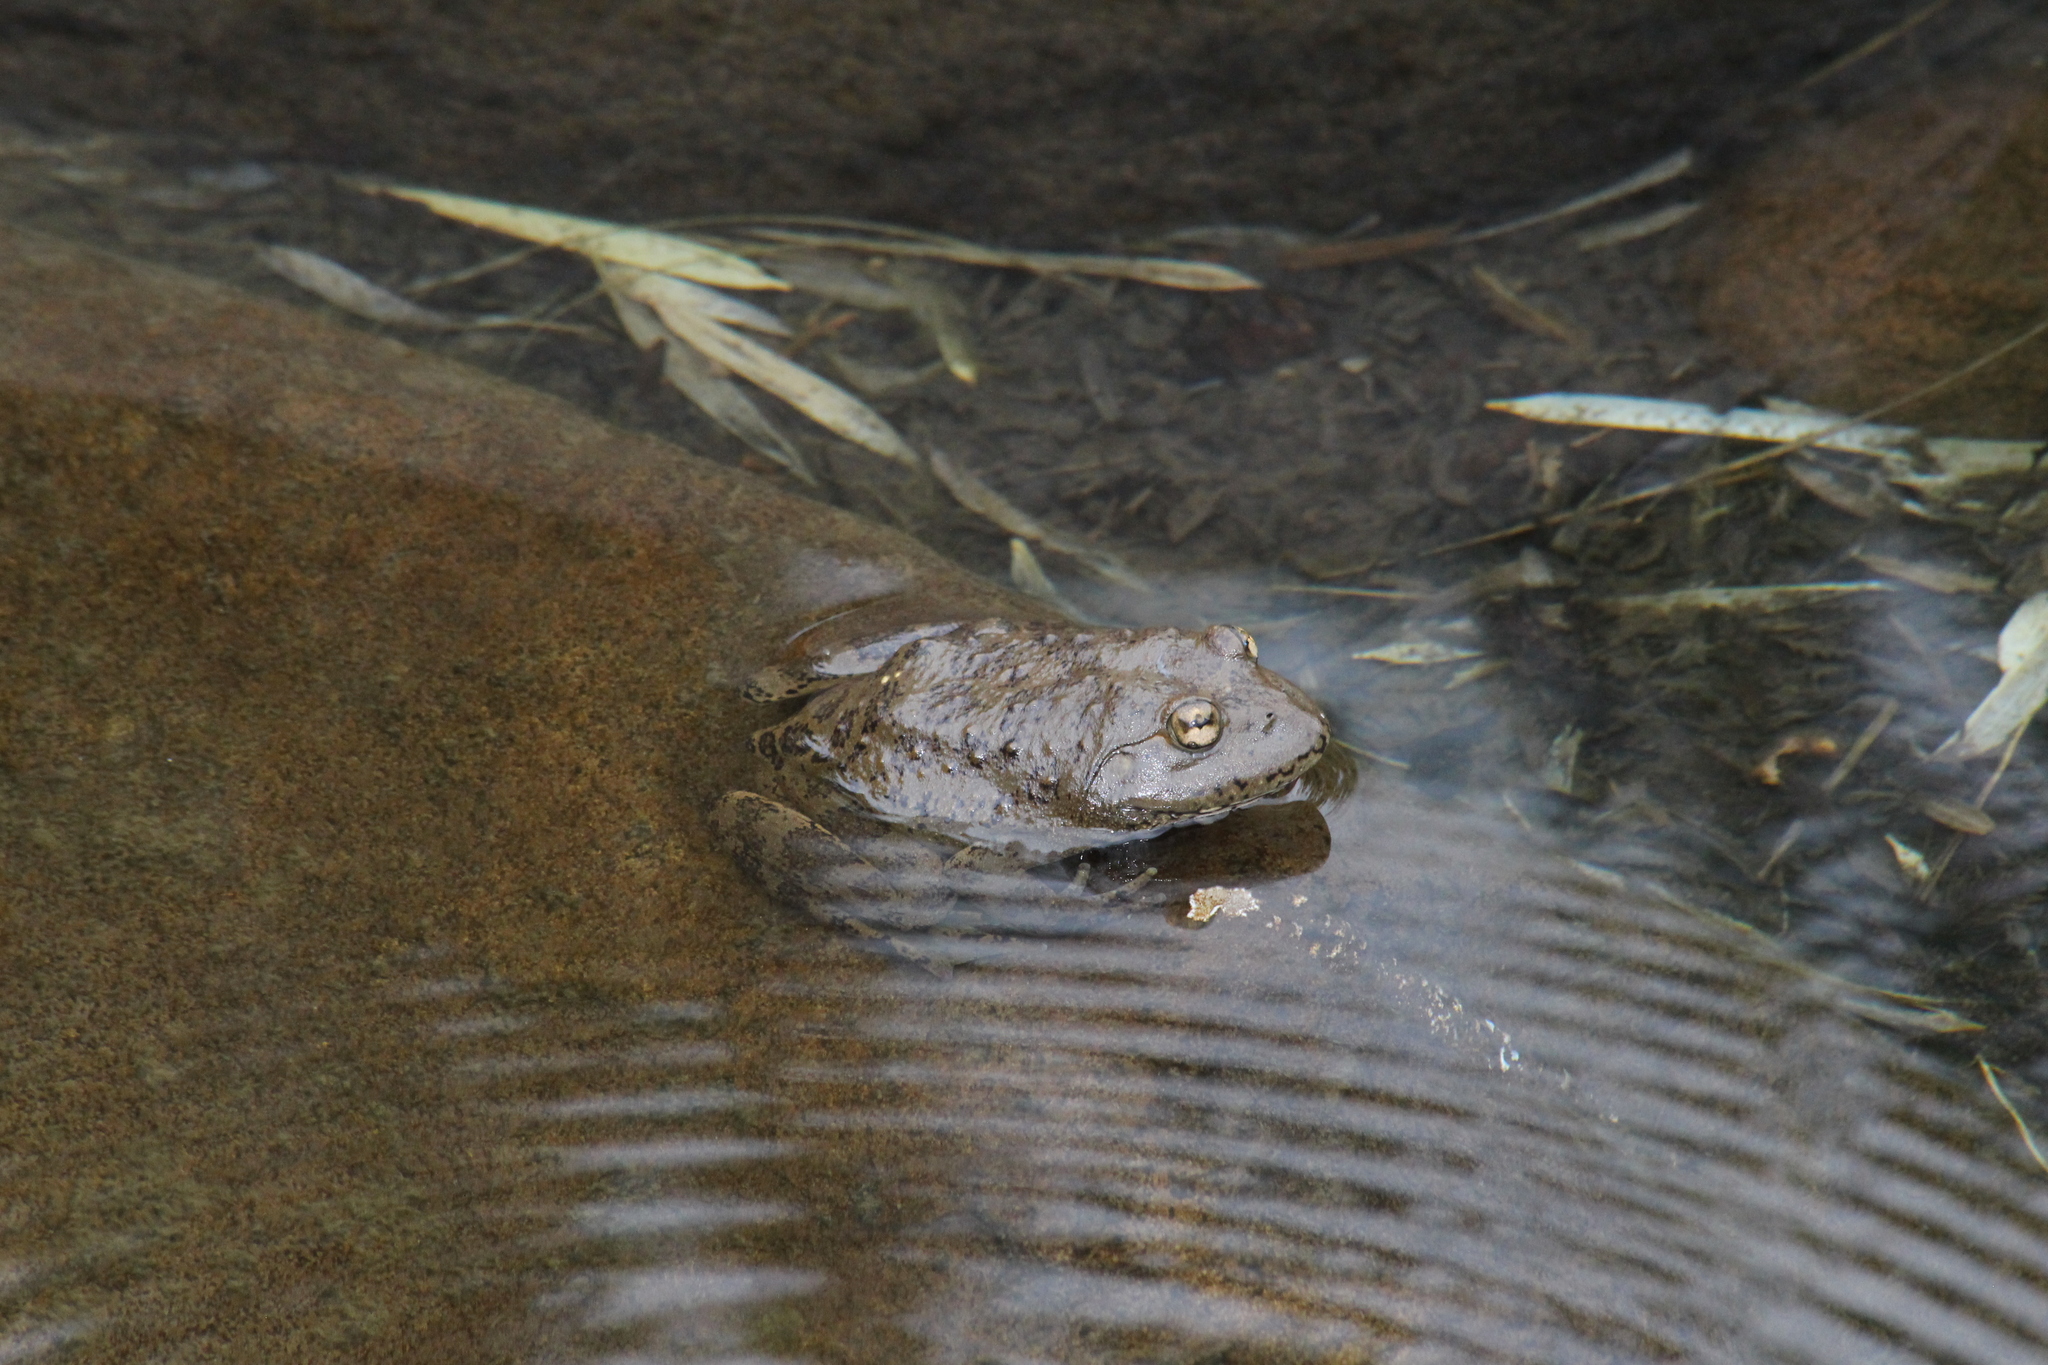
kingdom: Animalia
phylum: Chordata
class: Amphibia
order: Anura
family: Pyxicephalidae
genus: Amietia
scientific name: Amietia vertebralis
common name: Drakensberg stream frog
